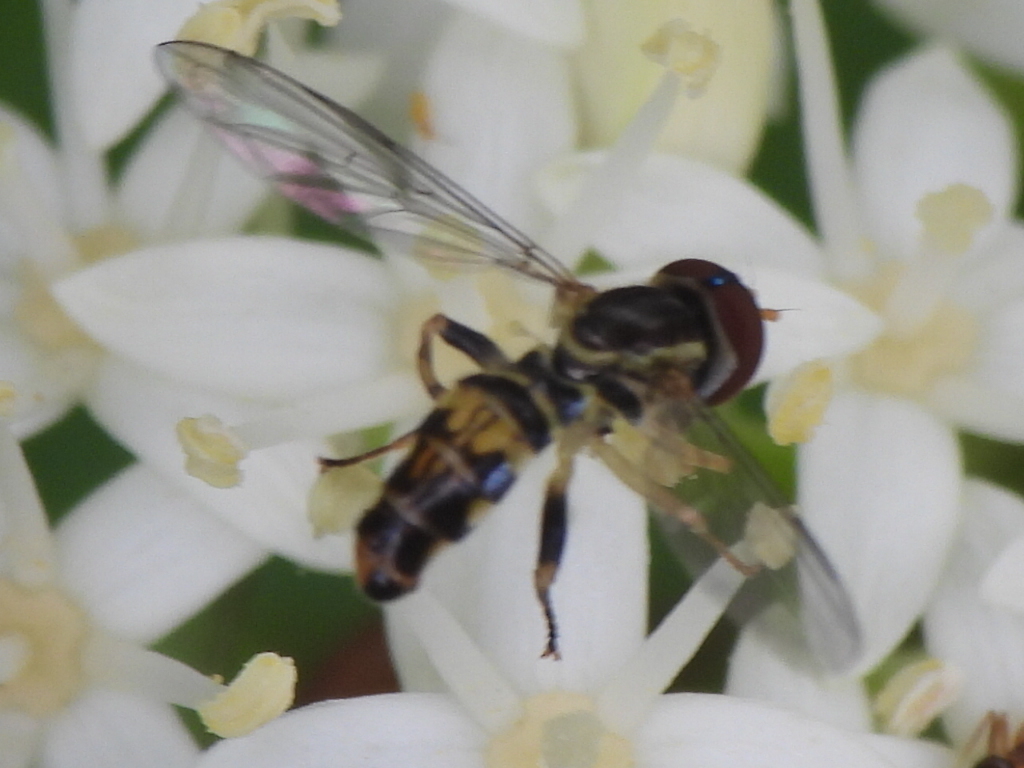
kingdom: Animalia
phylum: Arthropoda
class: Insecta
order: Diptera
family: Syrphidae
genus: Toxomerus
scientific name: Toxomerus geminatus
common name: Eastern calligrapher
